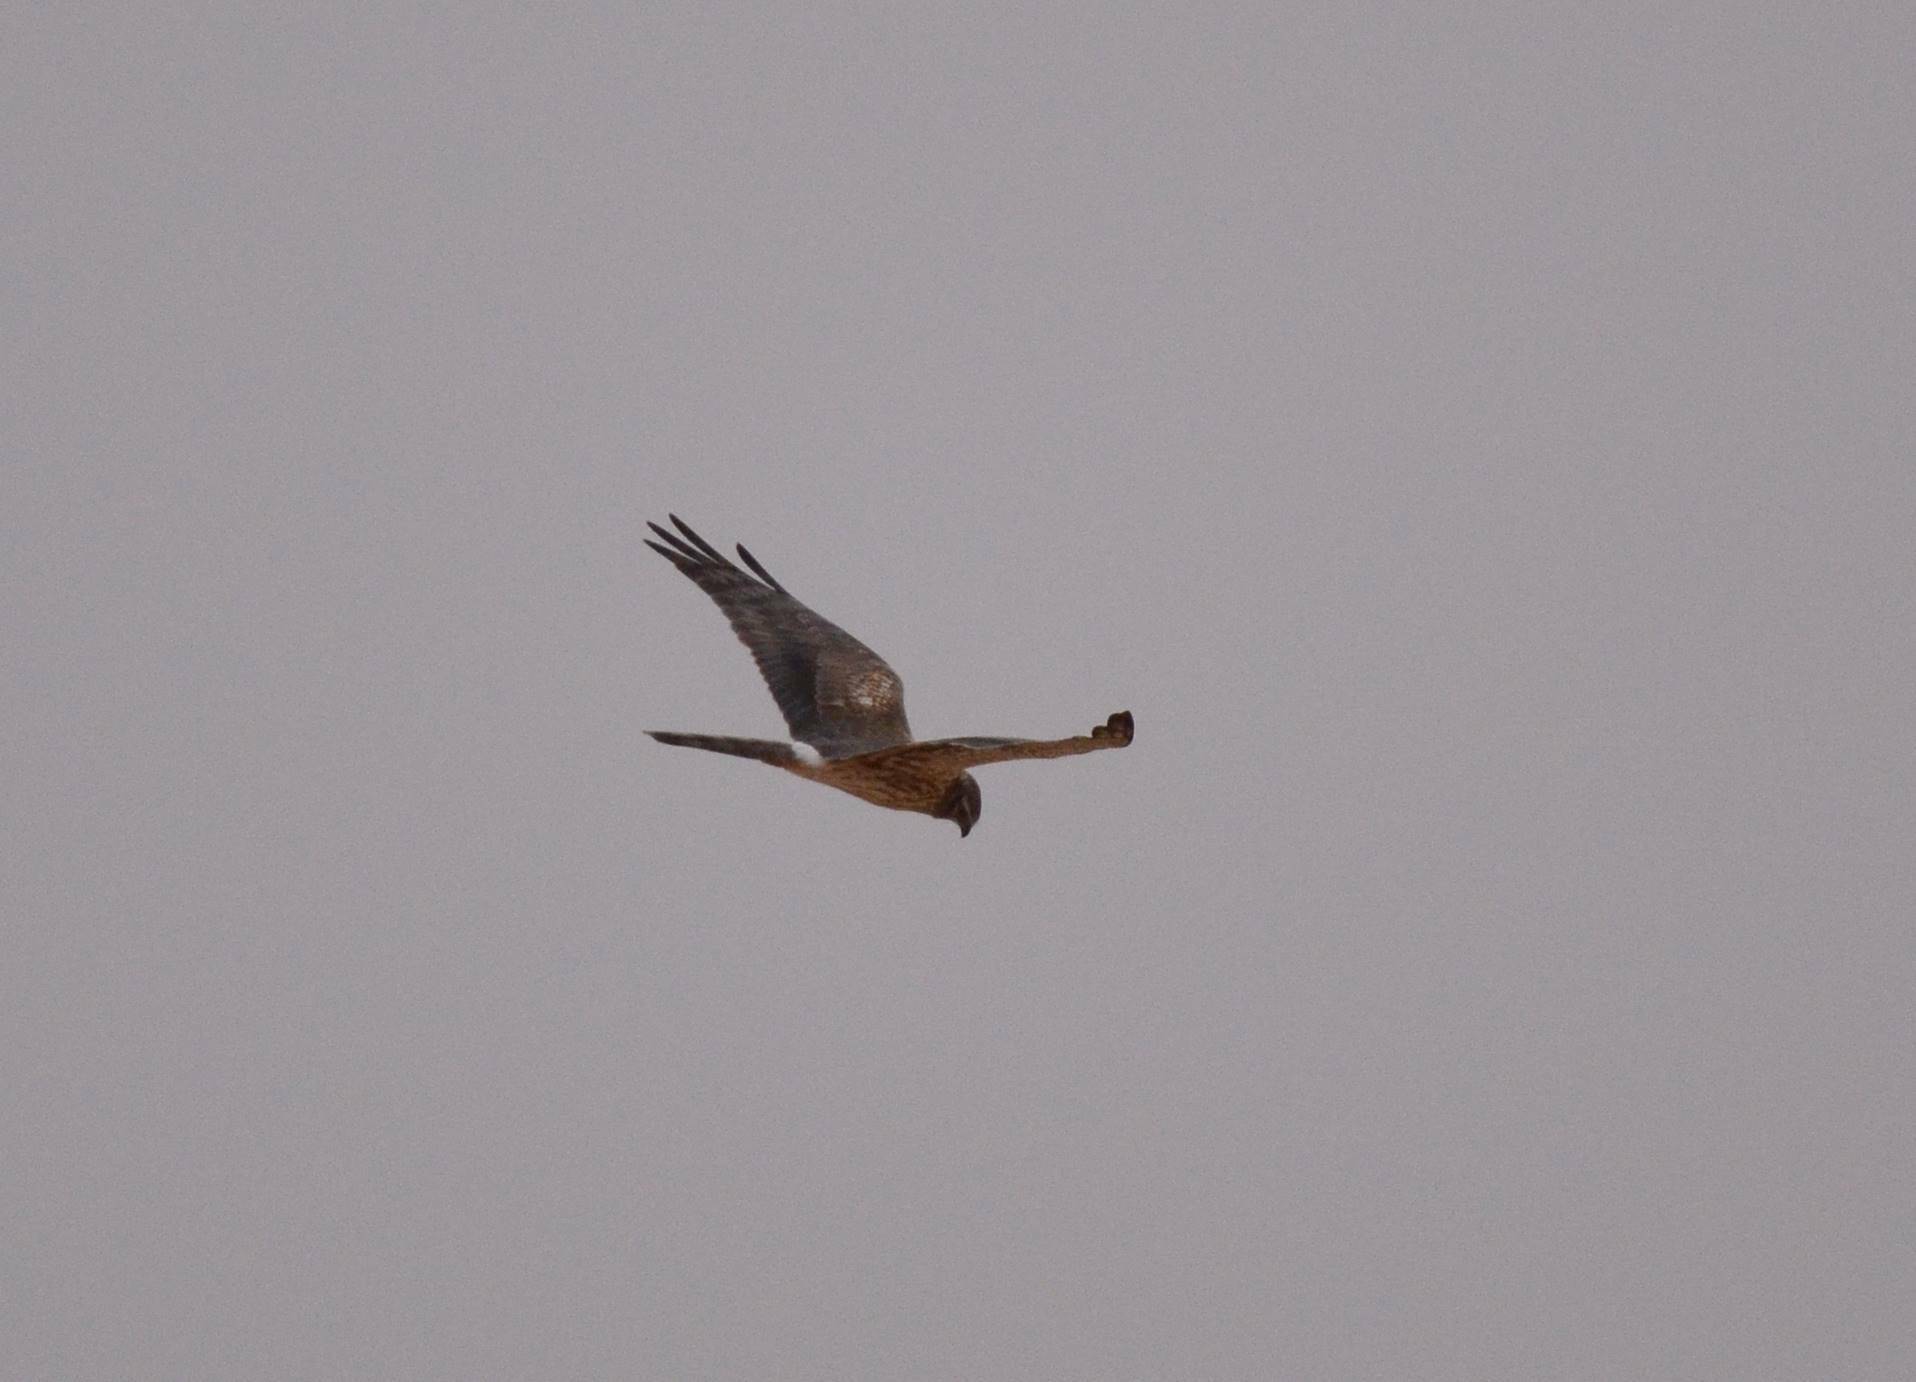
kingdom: Animalia
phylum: Chordata
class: Aves
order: Accipitriformes
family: Accipitridae
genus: Circus
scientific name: Circus pygargus
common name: Montagu's harrier
